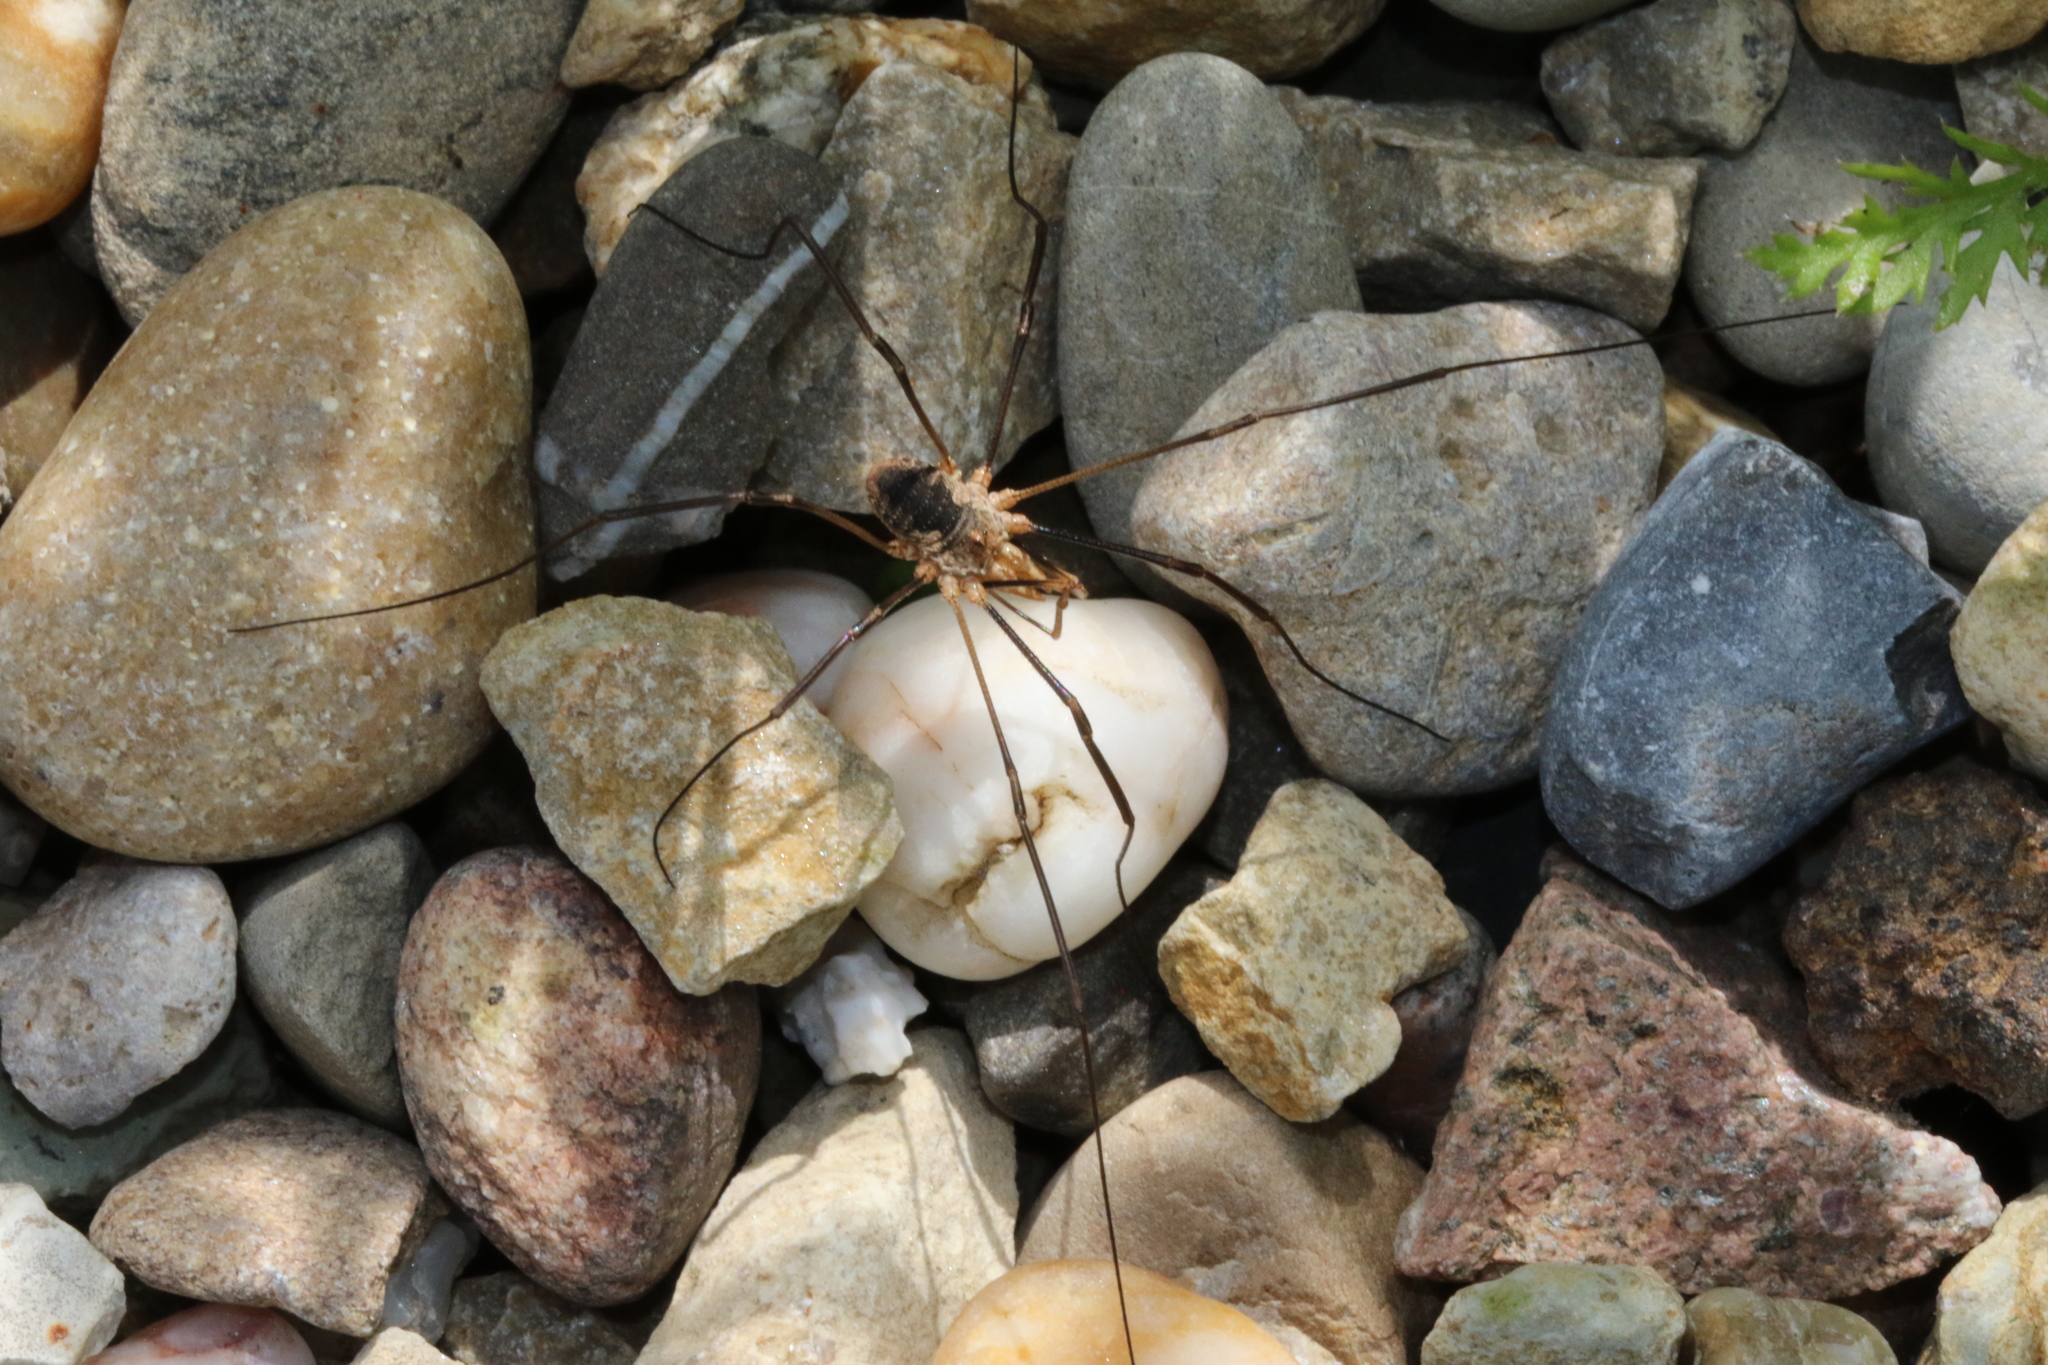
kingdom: Animalia
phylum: Arthropoda
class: Arachnida
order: Opiliones
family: Phalangiidae
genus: Phalangium
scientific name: Phalangium opilio
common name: Daddy longleg
